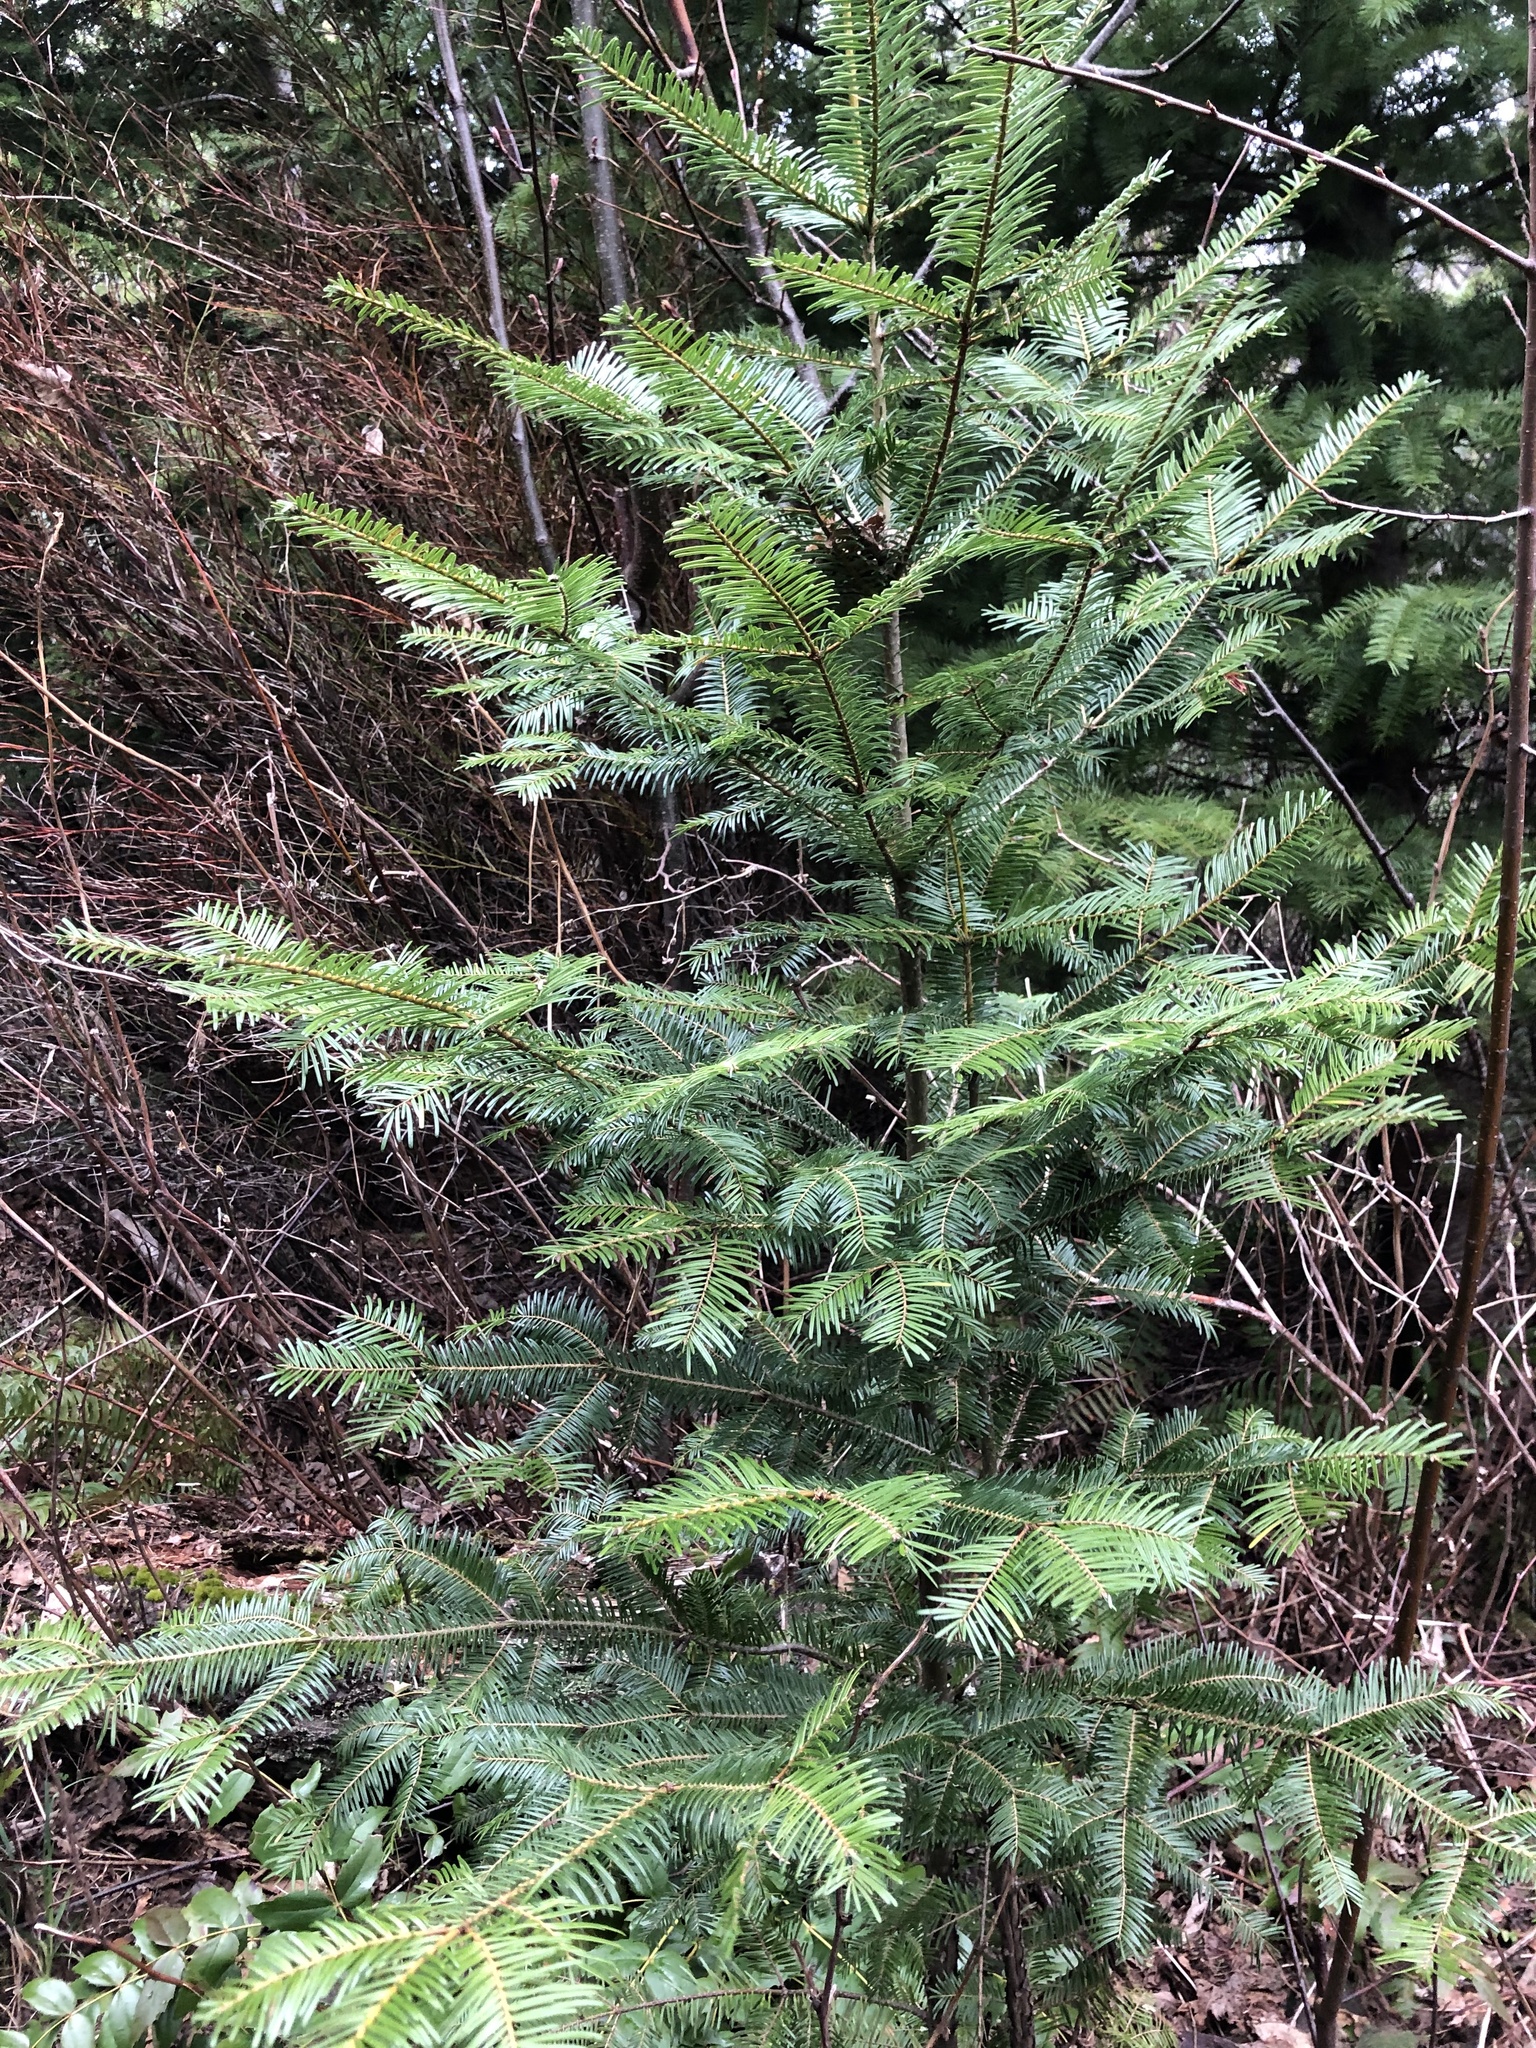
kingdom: Plantae
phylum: Tracheophyta
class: Pinopsida
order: Pinales
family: Pinaceae
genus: Abies
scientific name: Abies grandis
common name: Giant fir
